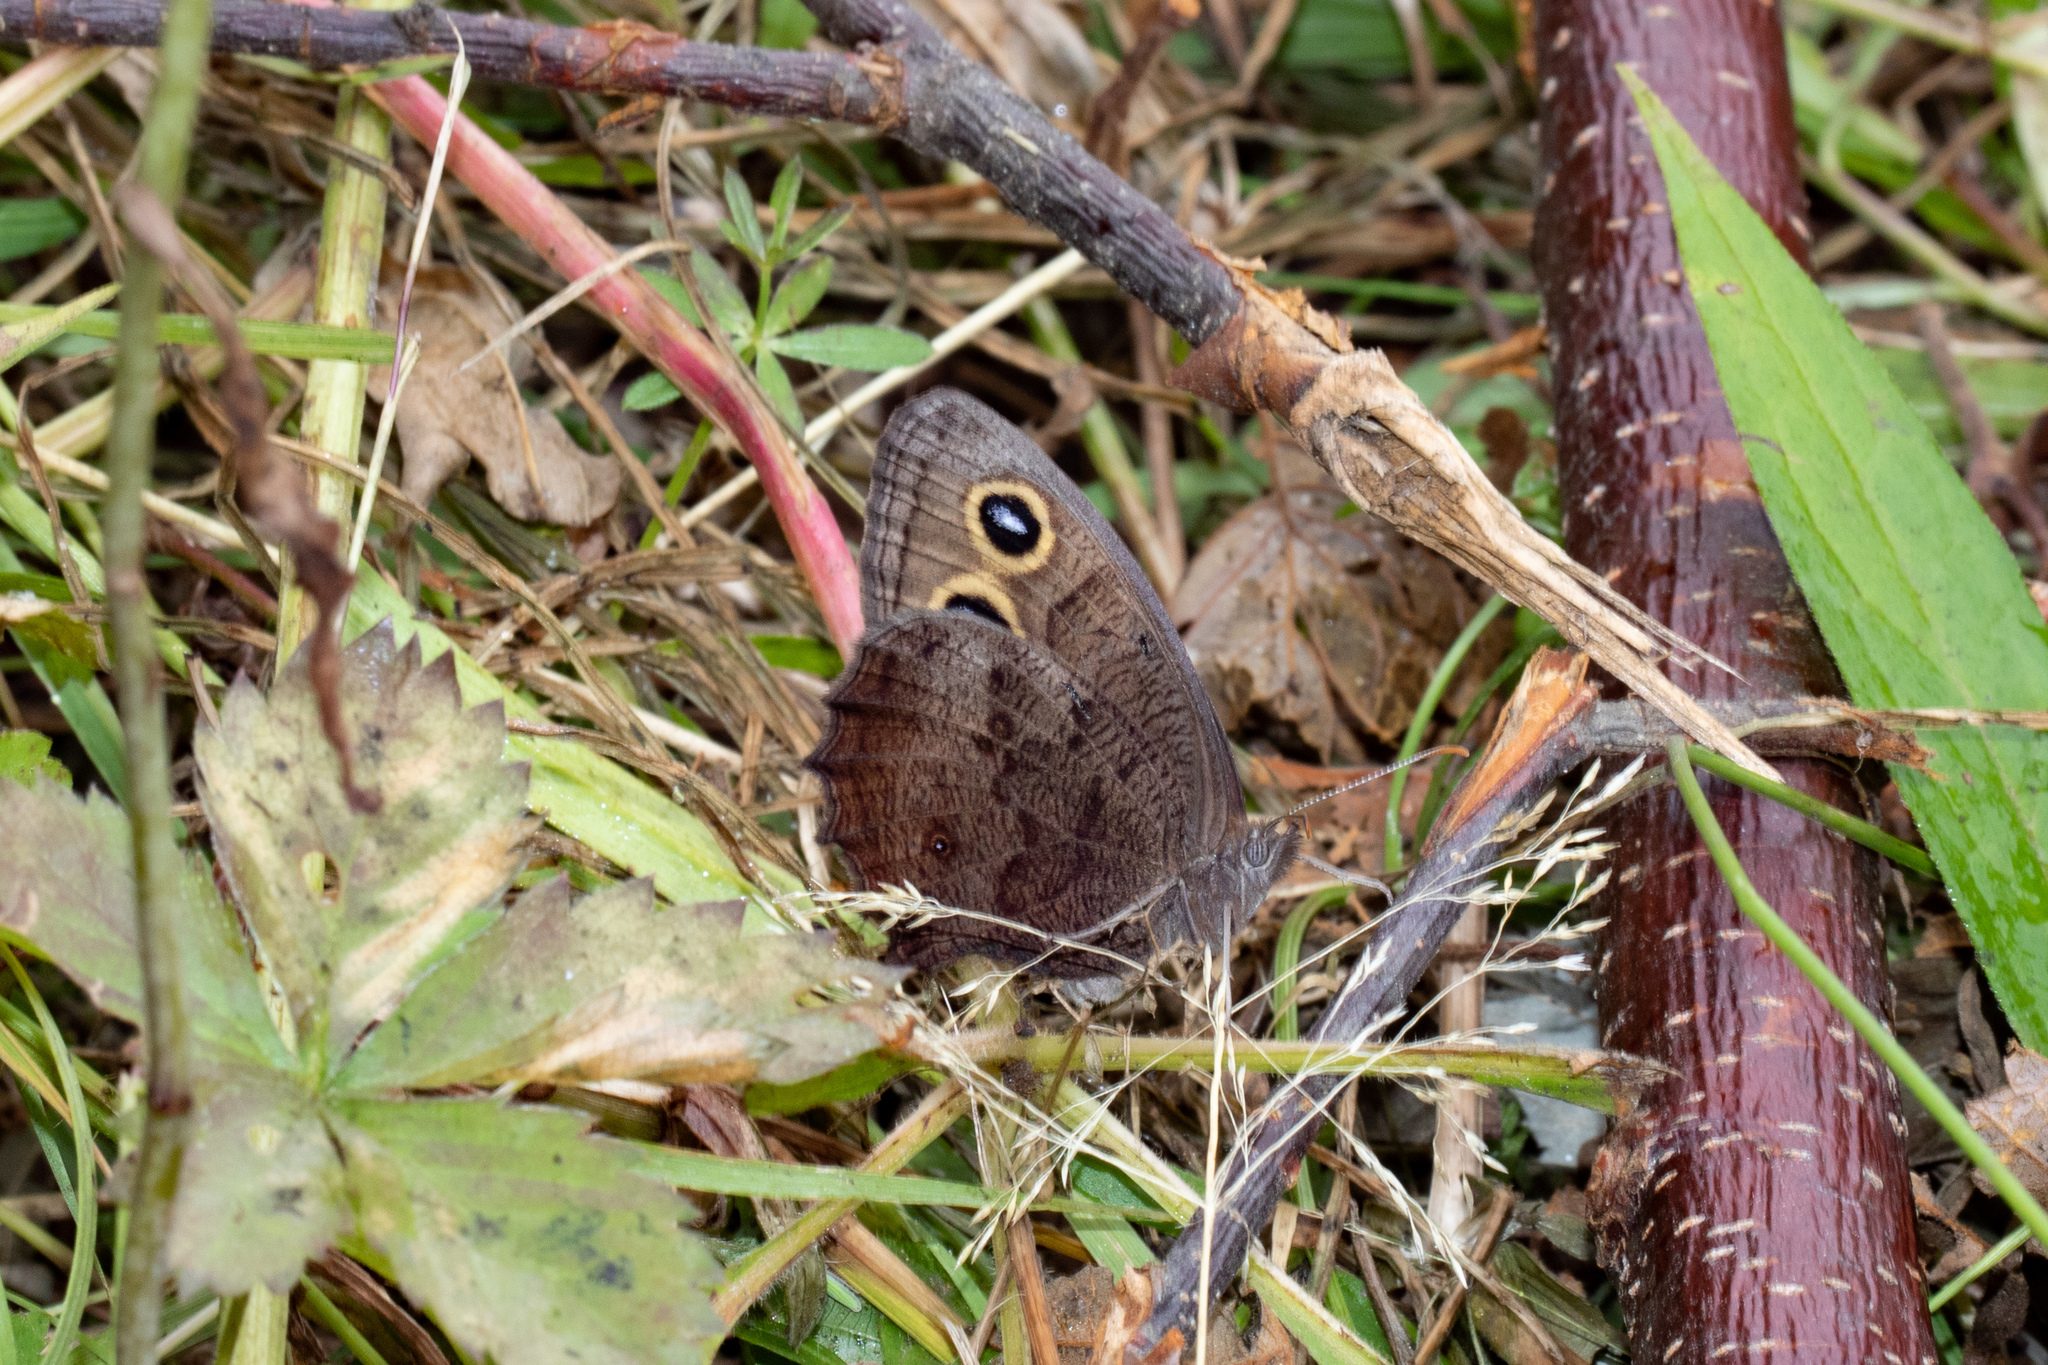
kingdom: Animalia
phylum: Arthropoda
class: Insecta
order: Lepidoptera
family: Nymphalidae
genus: Cercyonis
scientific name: Cercyonis pegala
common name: Common wood-nymph
